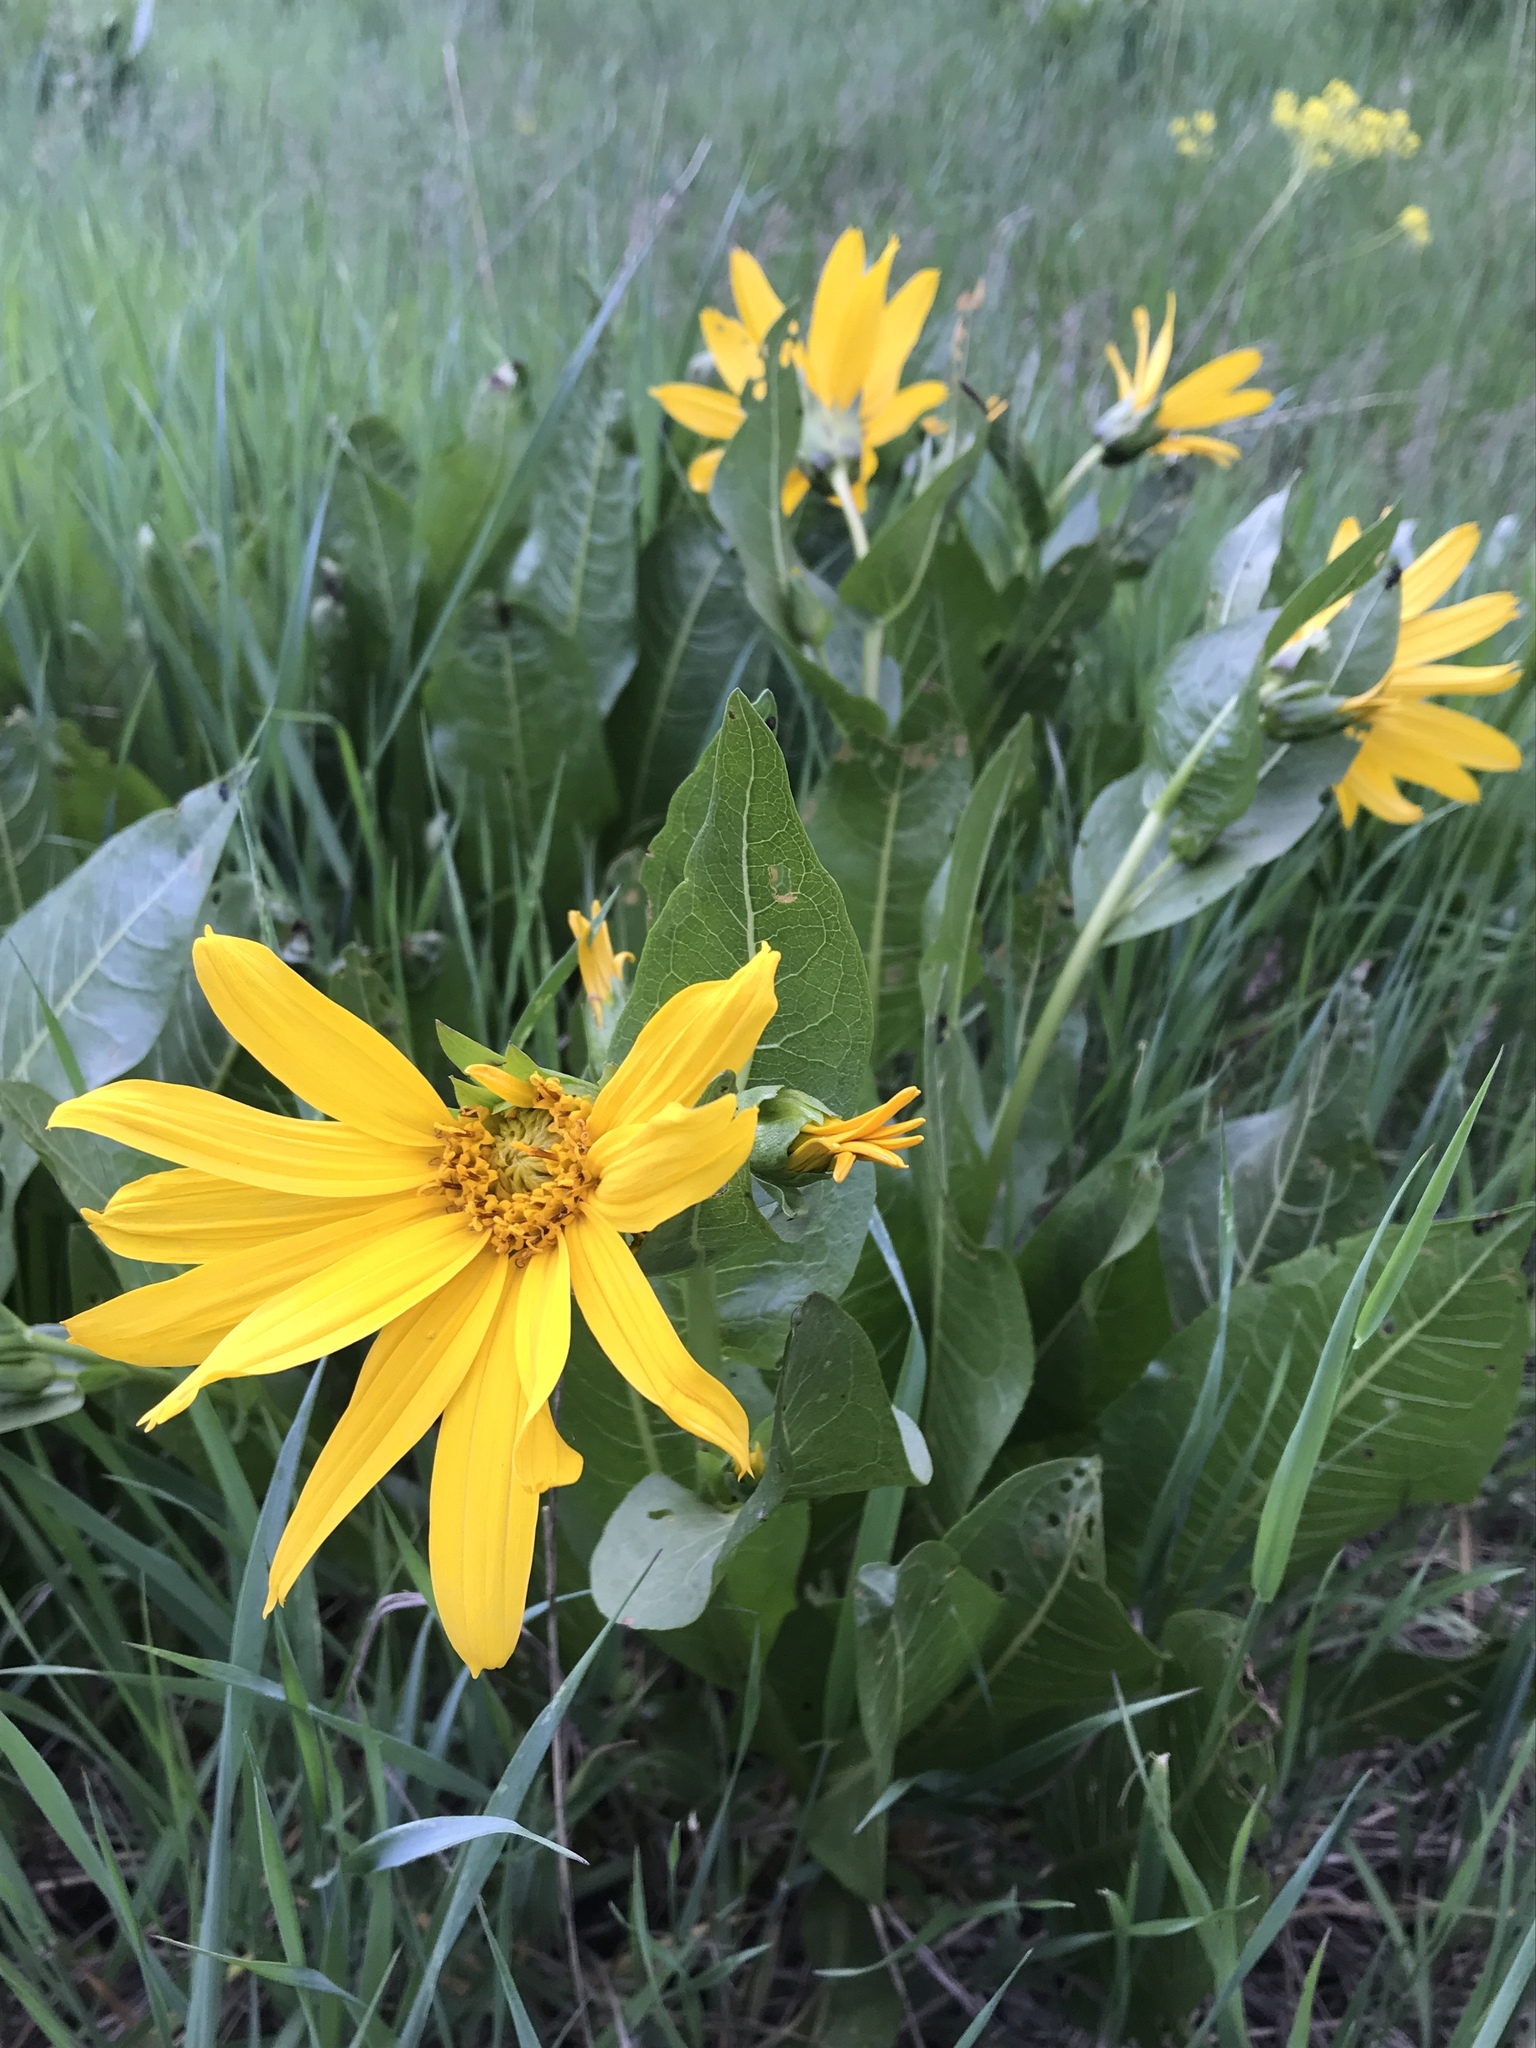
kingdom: Plantae
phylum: Tracheophyta
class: Magnoliopsida
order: Asterales
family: Asteraceae
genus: Wyethia
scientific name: Wyethia amplexicaulis
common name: Northern mule's-ears
